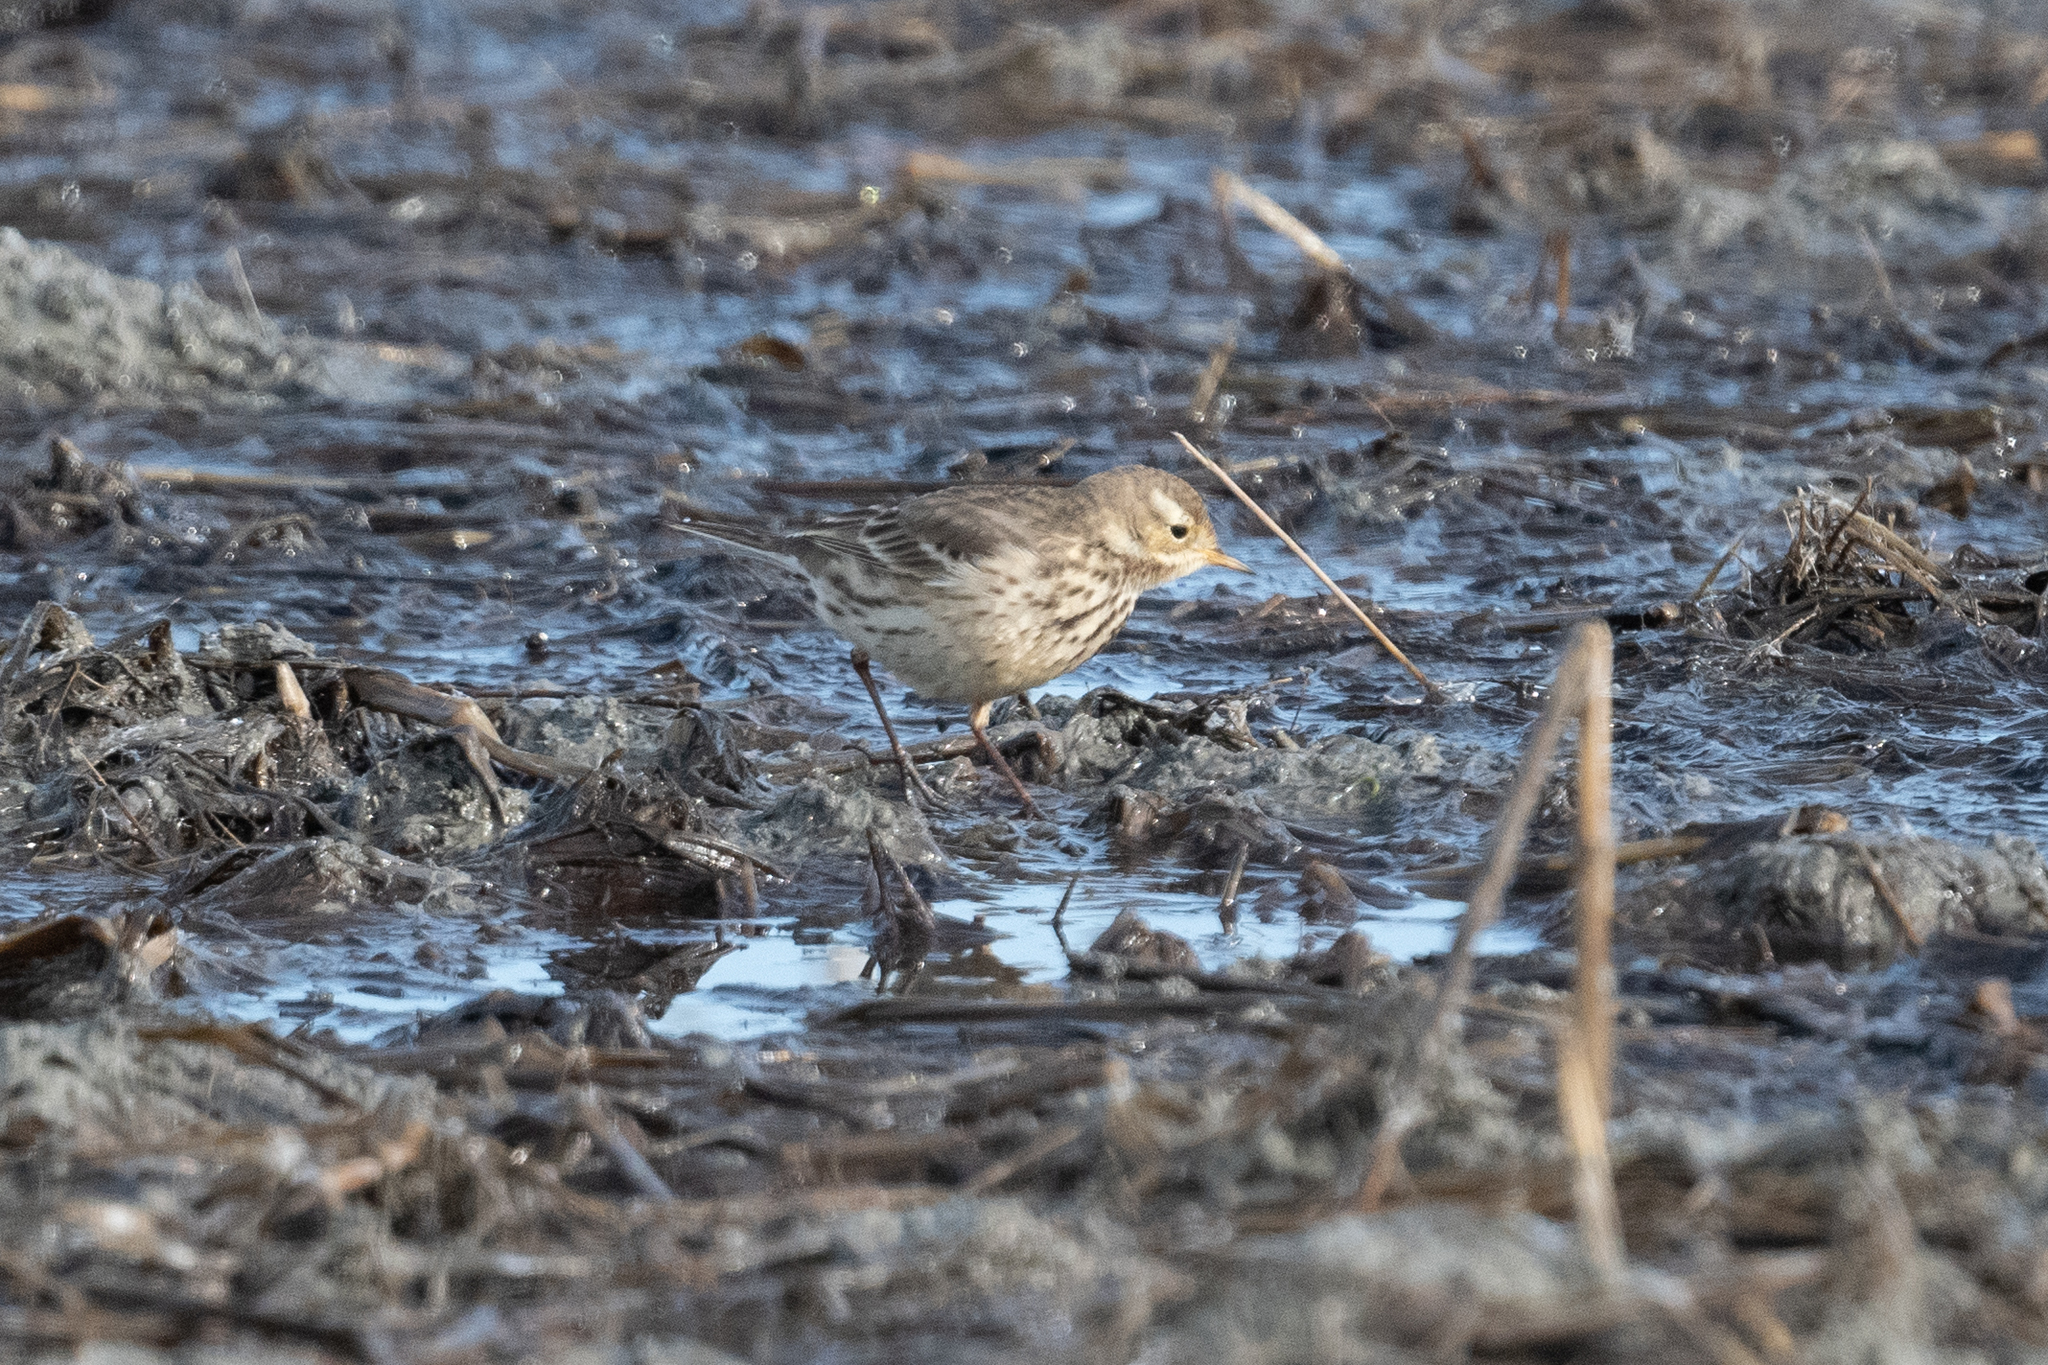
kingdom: Animalia
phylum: Chordata
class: Aves
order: Passeriformes
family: Motacillidae
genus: Anthus
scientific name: Anthus rubescens
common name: Buff-bellied pipit
